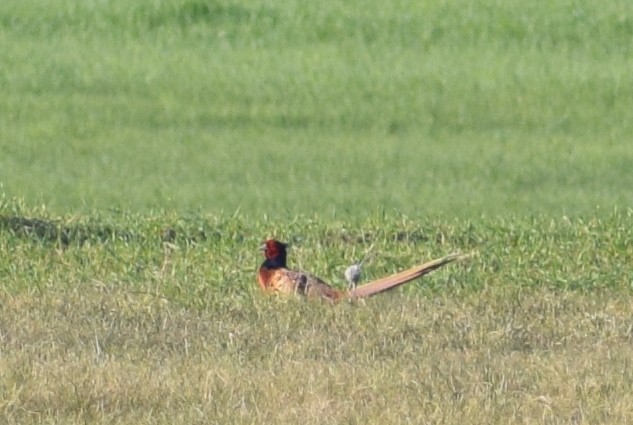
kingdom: Animalia
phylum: Chordata
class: Aves
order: Galliformes
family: Phasianidae
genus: Phasianus
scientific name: Phasianus colchicus
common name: Common pheasant
